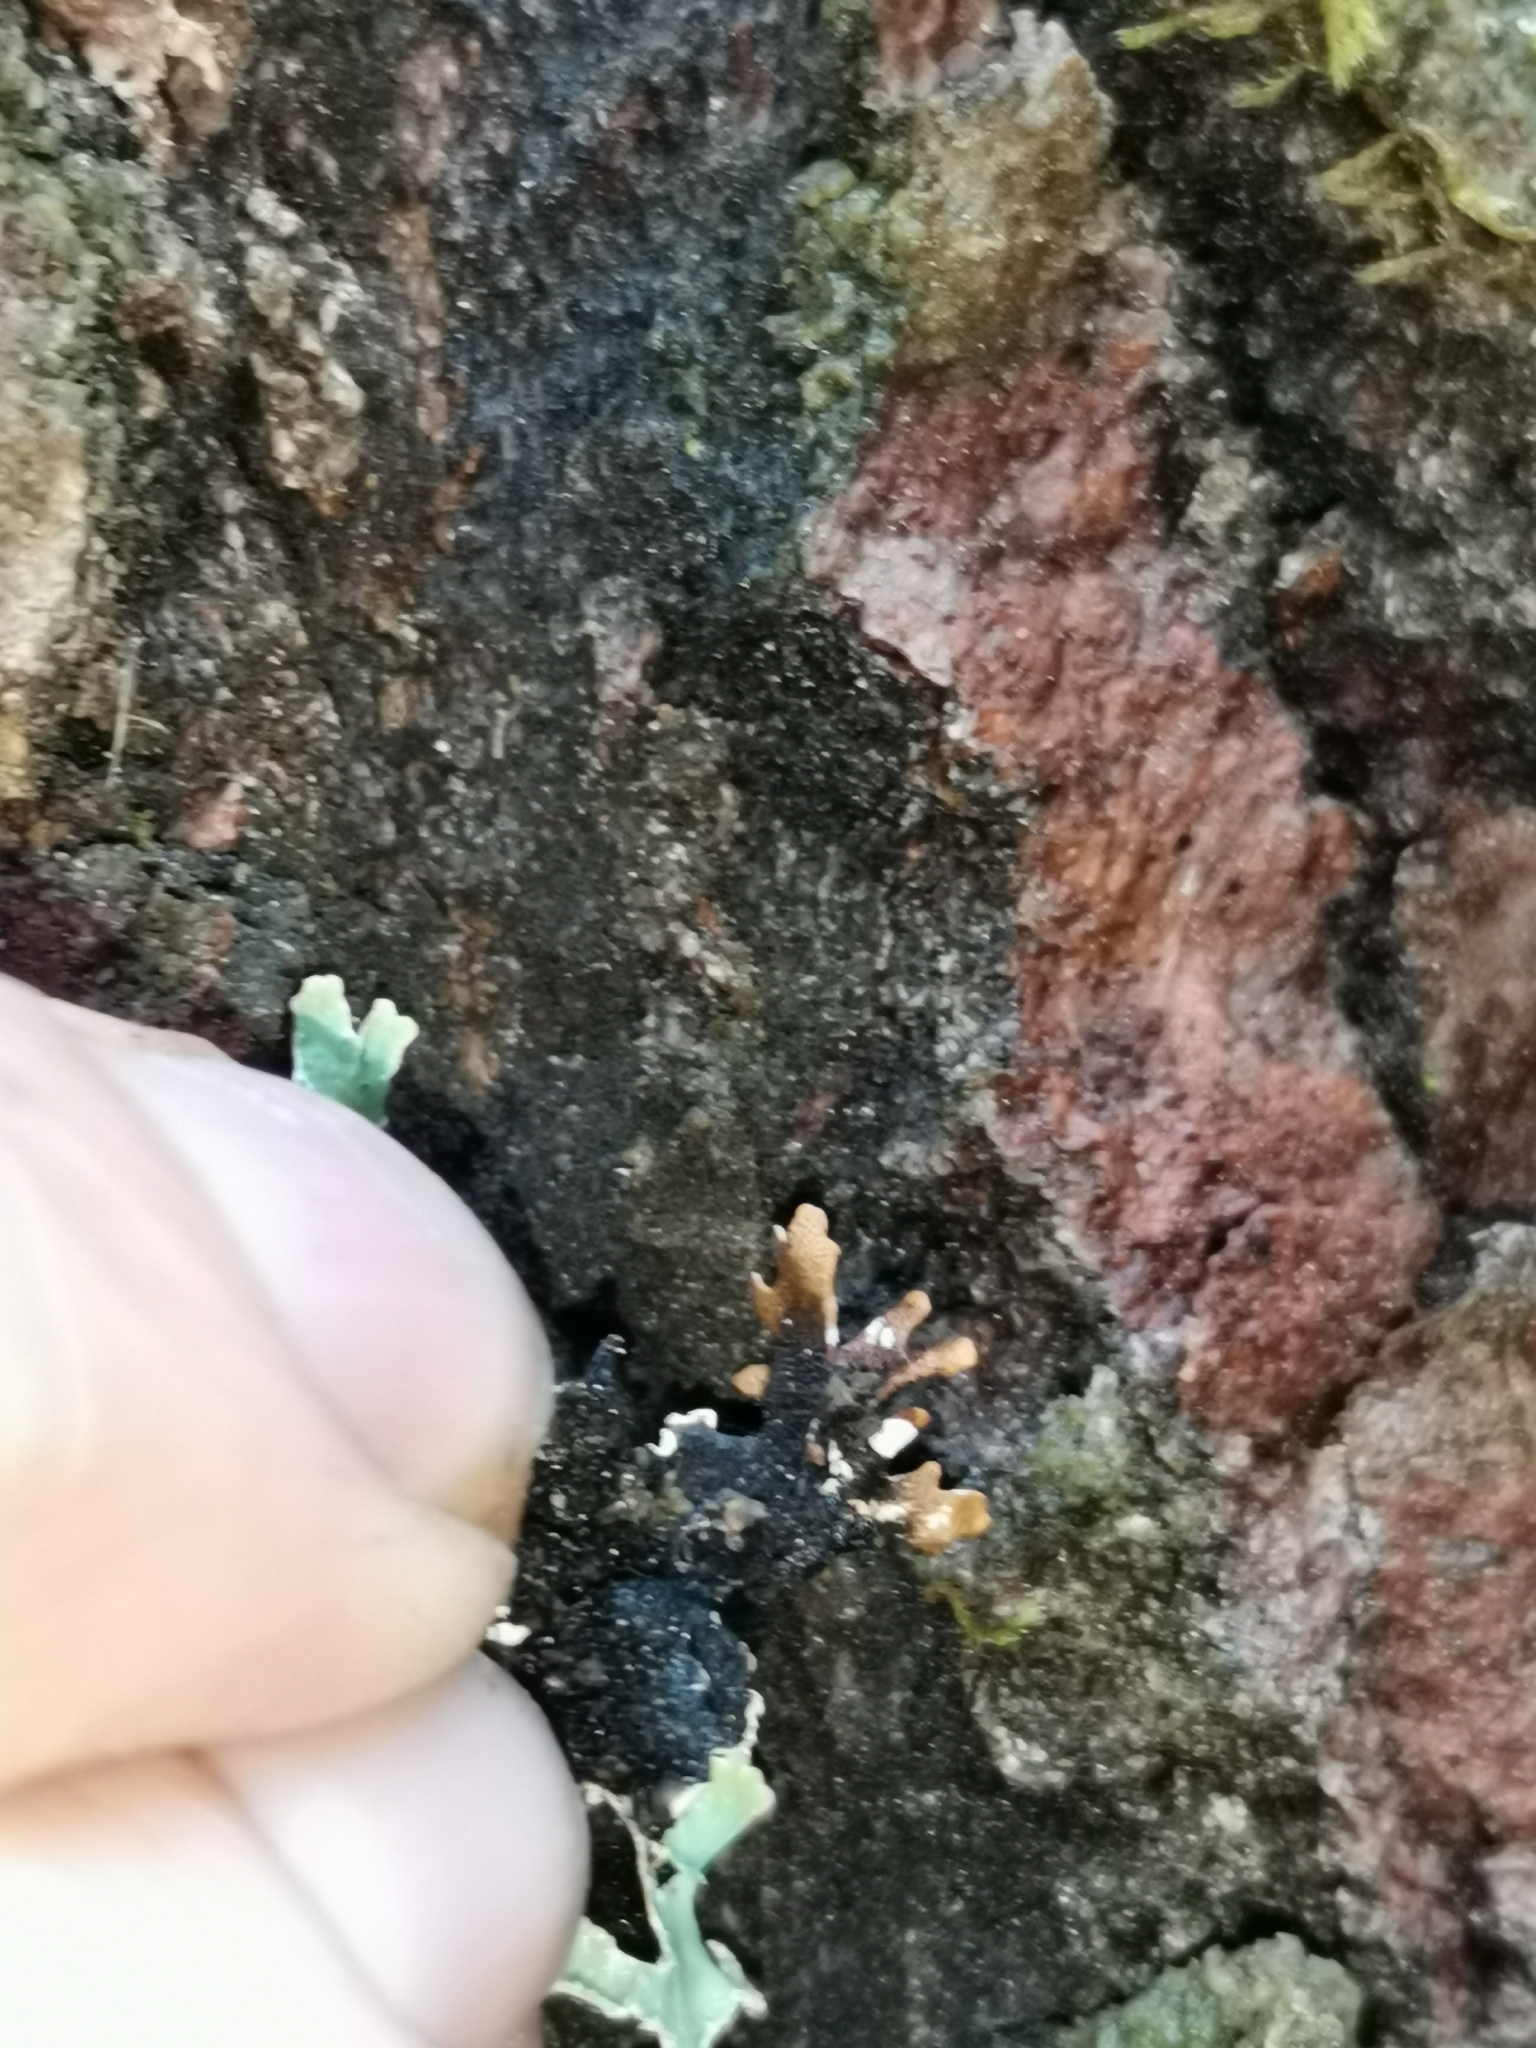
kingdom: Fungi
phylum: Ascomycota
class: Lecanoromycetes
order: Lecanorales
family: Parmeliaceae
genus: Parmelia
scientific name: Parmelia sulcata
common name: Netted shield lichen
